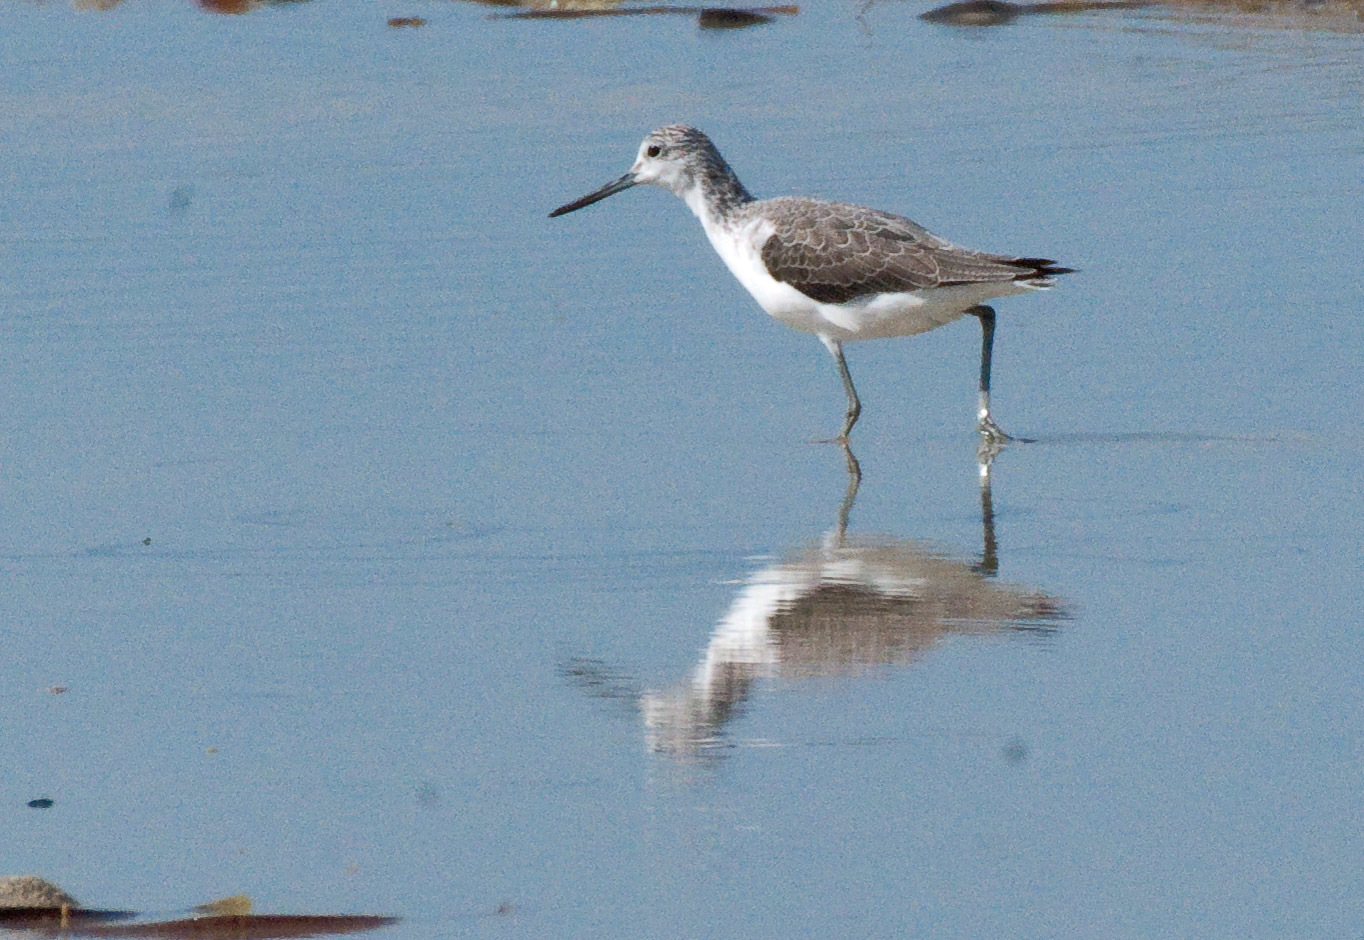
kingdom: Animalia
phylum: Chordata
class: Aves
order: Charadriiformes
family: Scolopacidae
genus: Tringa
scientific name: Tringa nebularia
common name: Common greenshank
